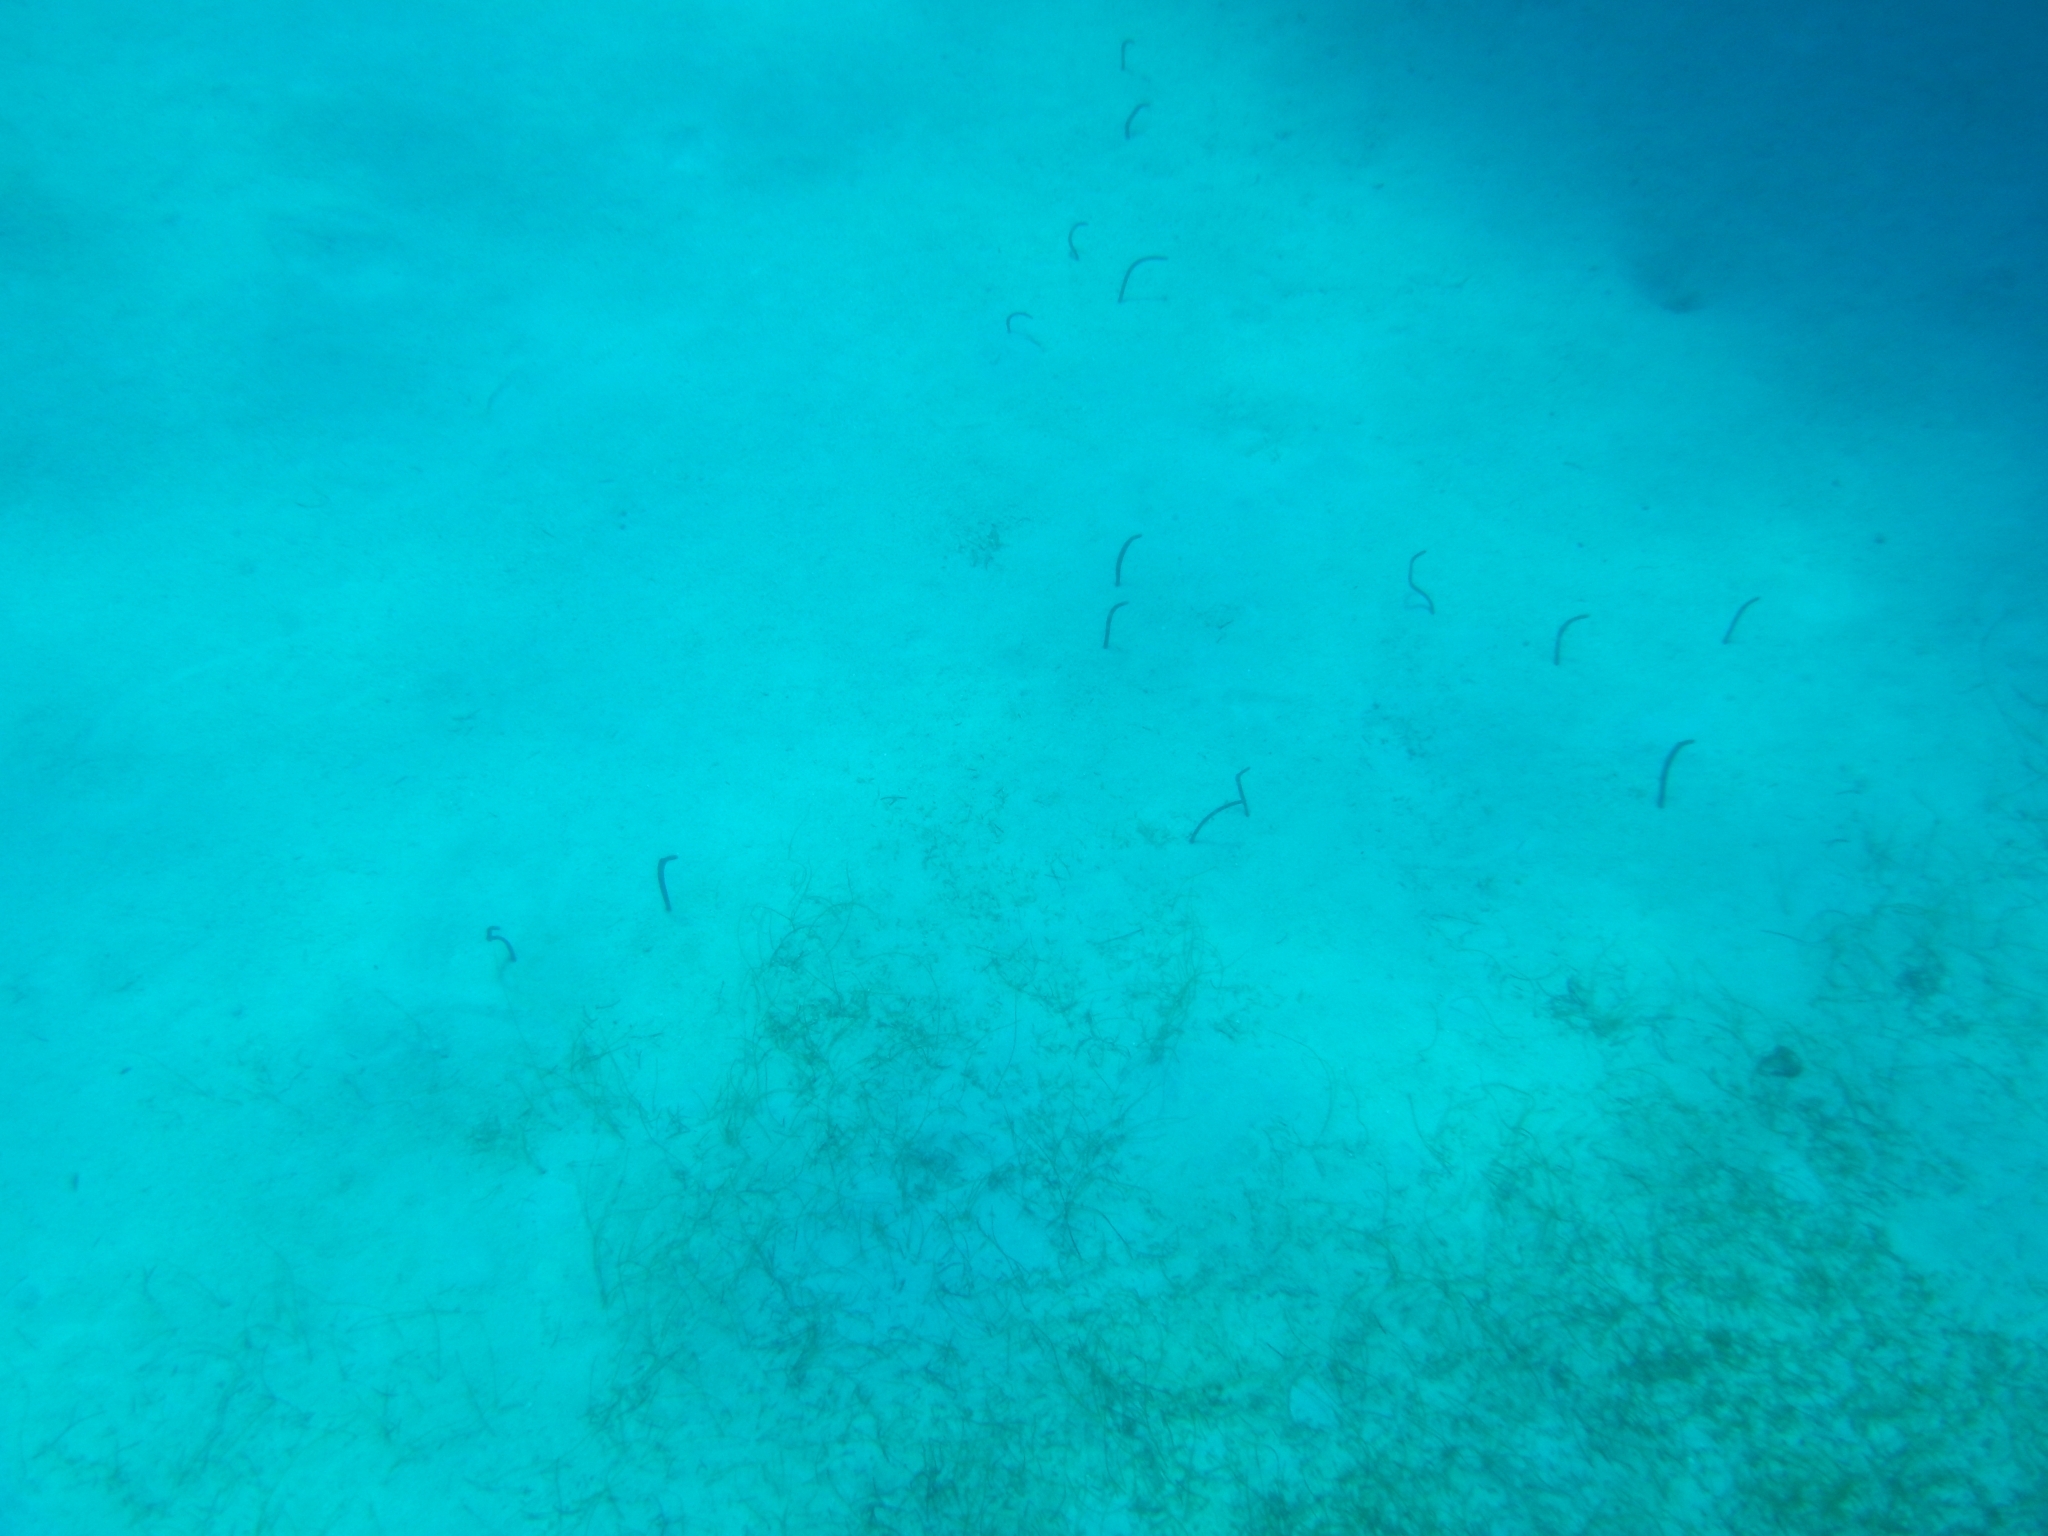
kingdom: Animalia
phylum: Chordata
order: Anguilliformes
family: Congridae
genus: Heteroconger
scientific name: Heteroconger longissimus
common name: Garden eel
